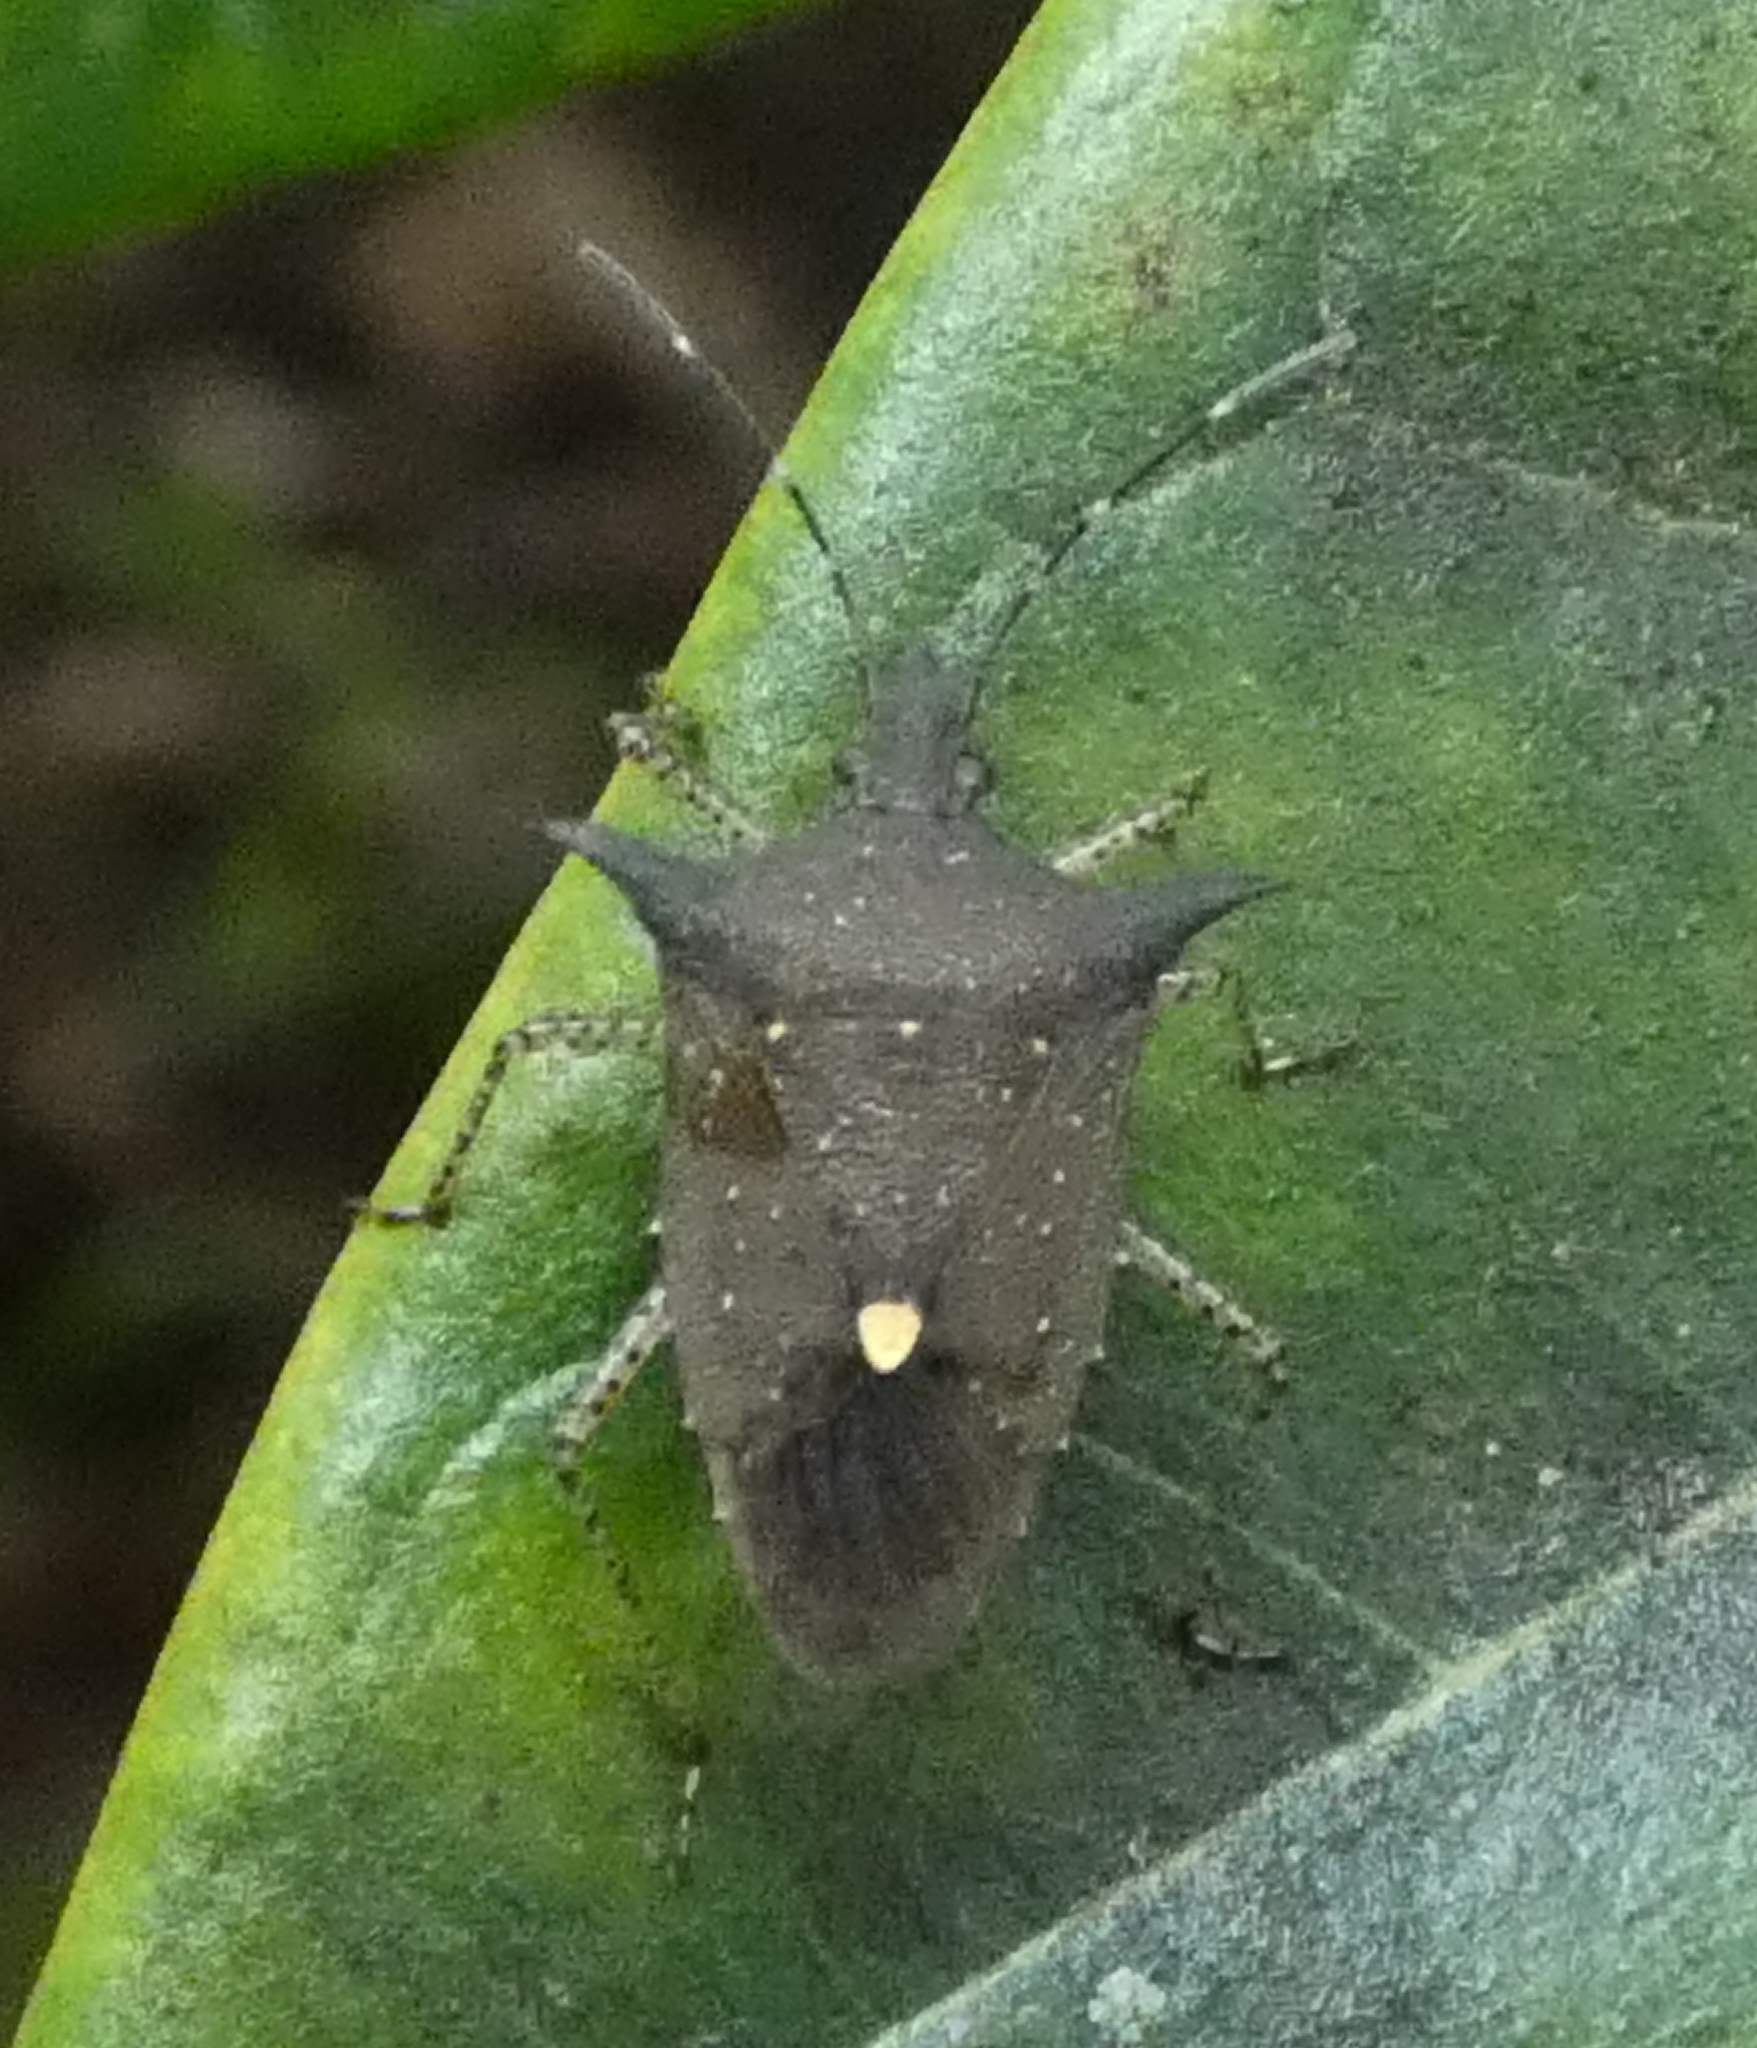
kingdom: Animalia
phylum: Arthropoda
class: Insecta
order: Hemiptera
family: Pentatomidae
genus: Proxys
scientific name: Proxys albopunctulatus
